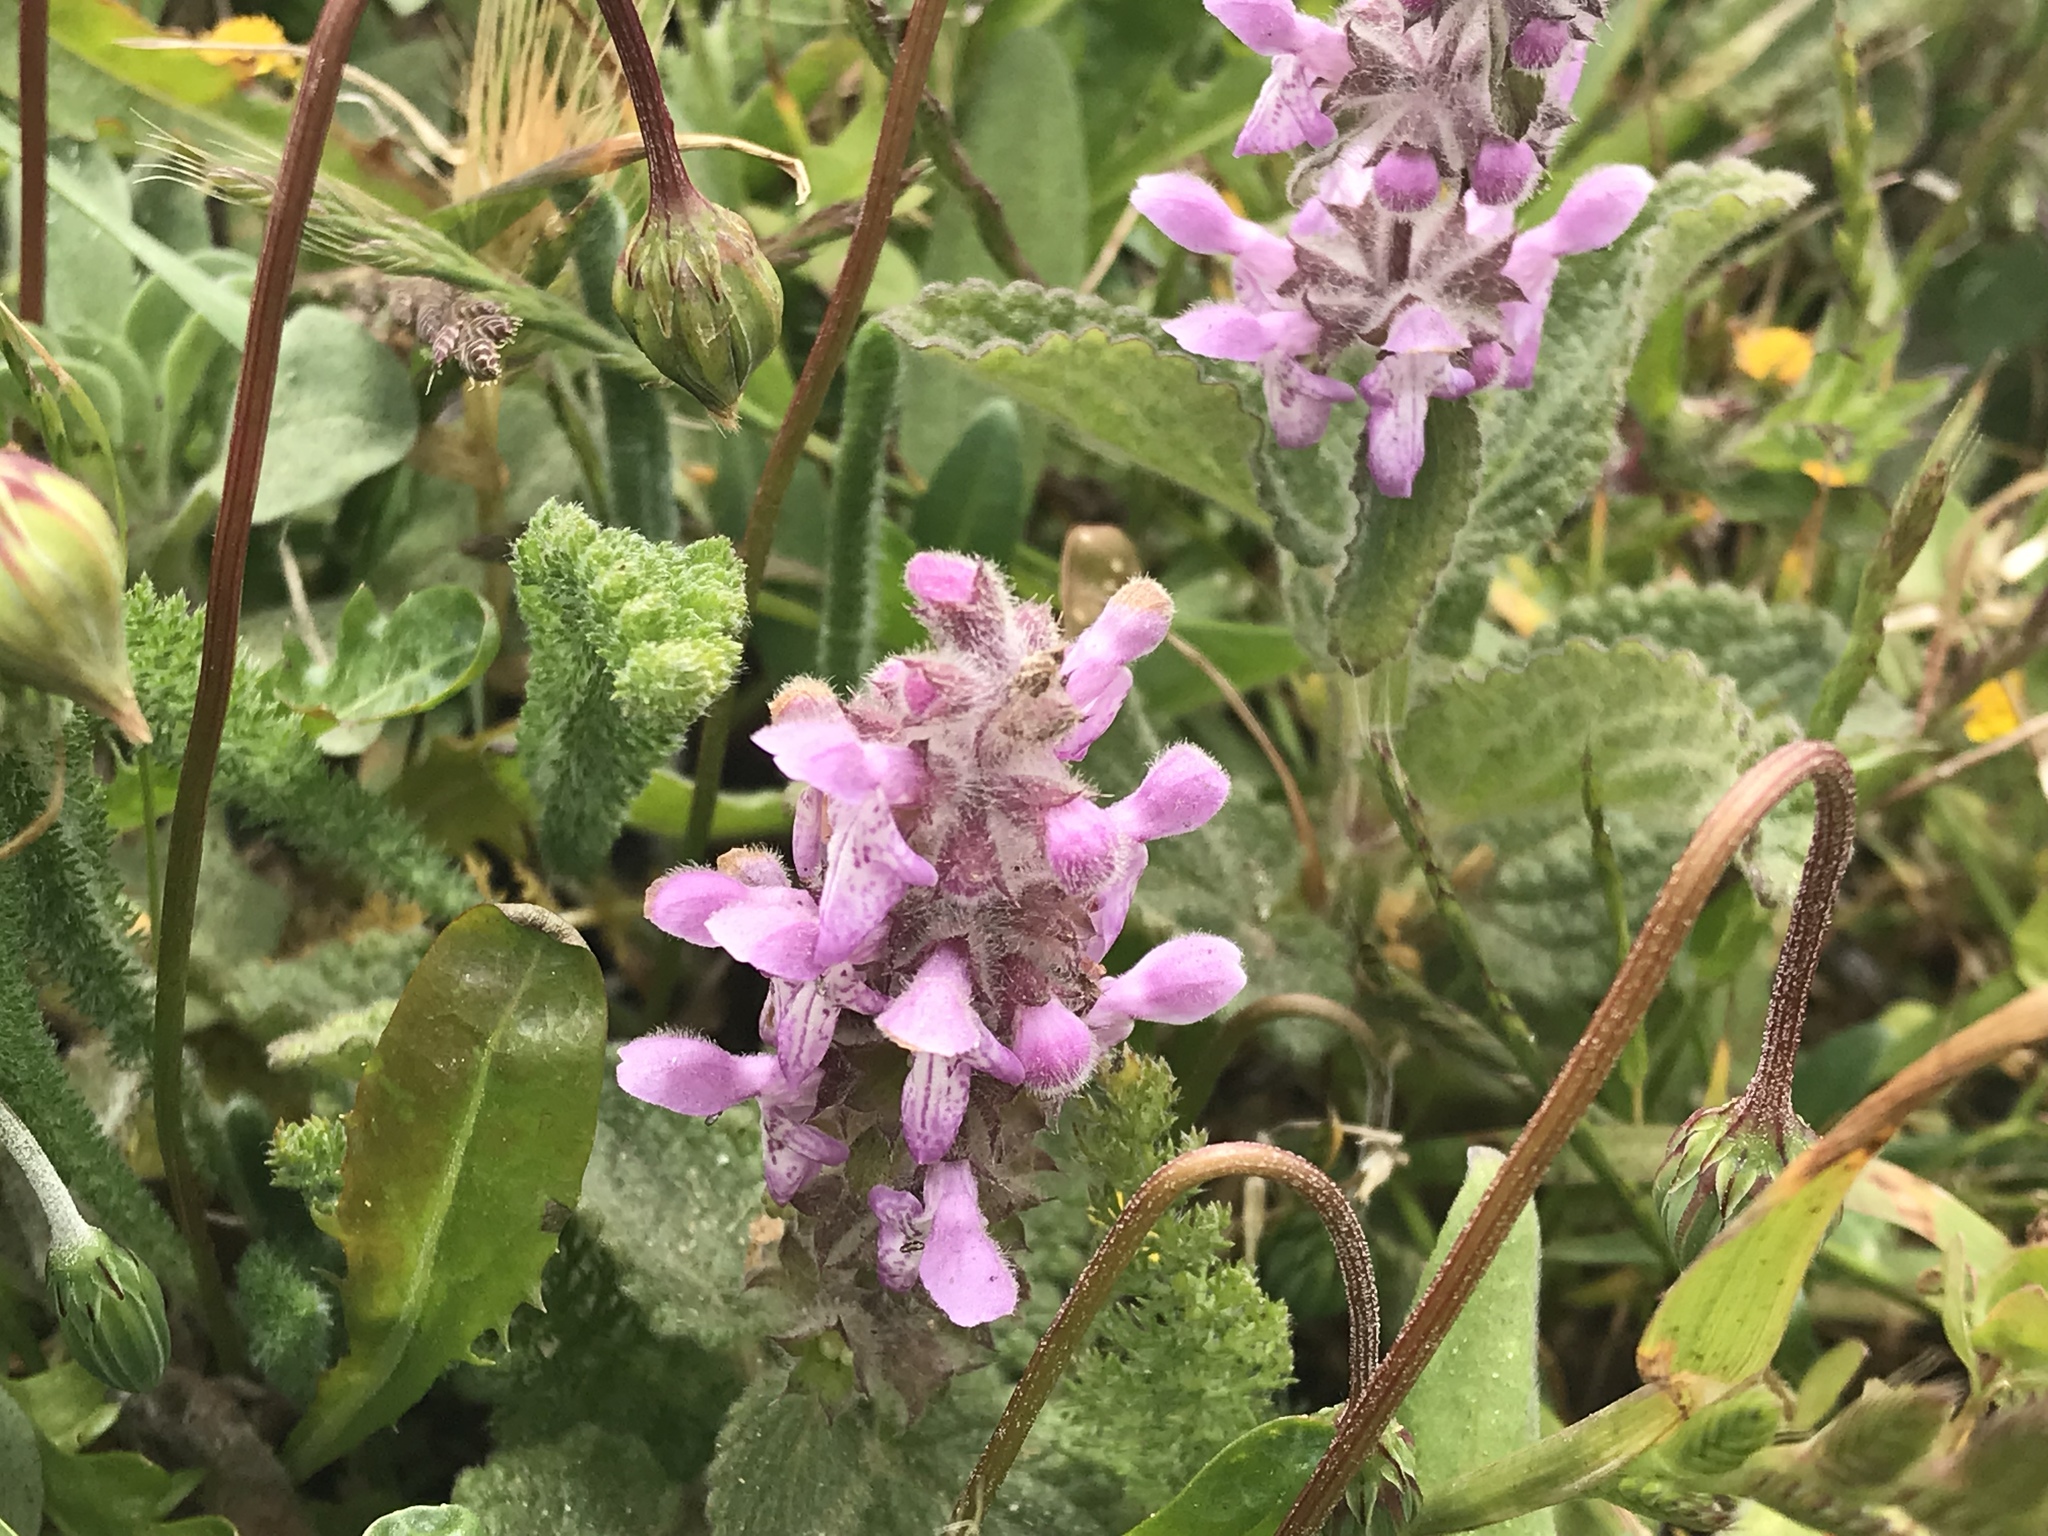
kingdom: Plantae
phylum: Tracheophyta
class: Magnoliopsida
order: Lamiales
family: Lamiaceae
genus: Stachys
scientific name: Stachys bullata
